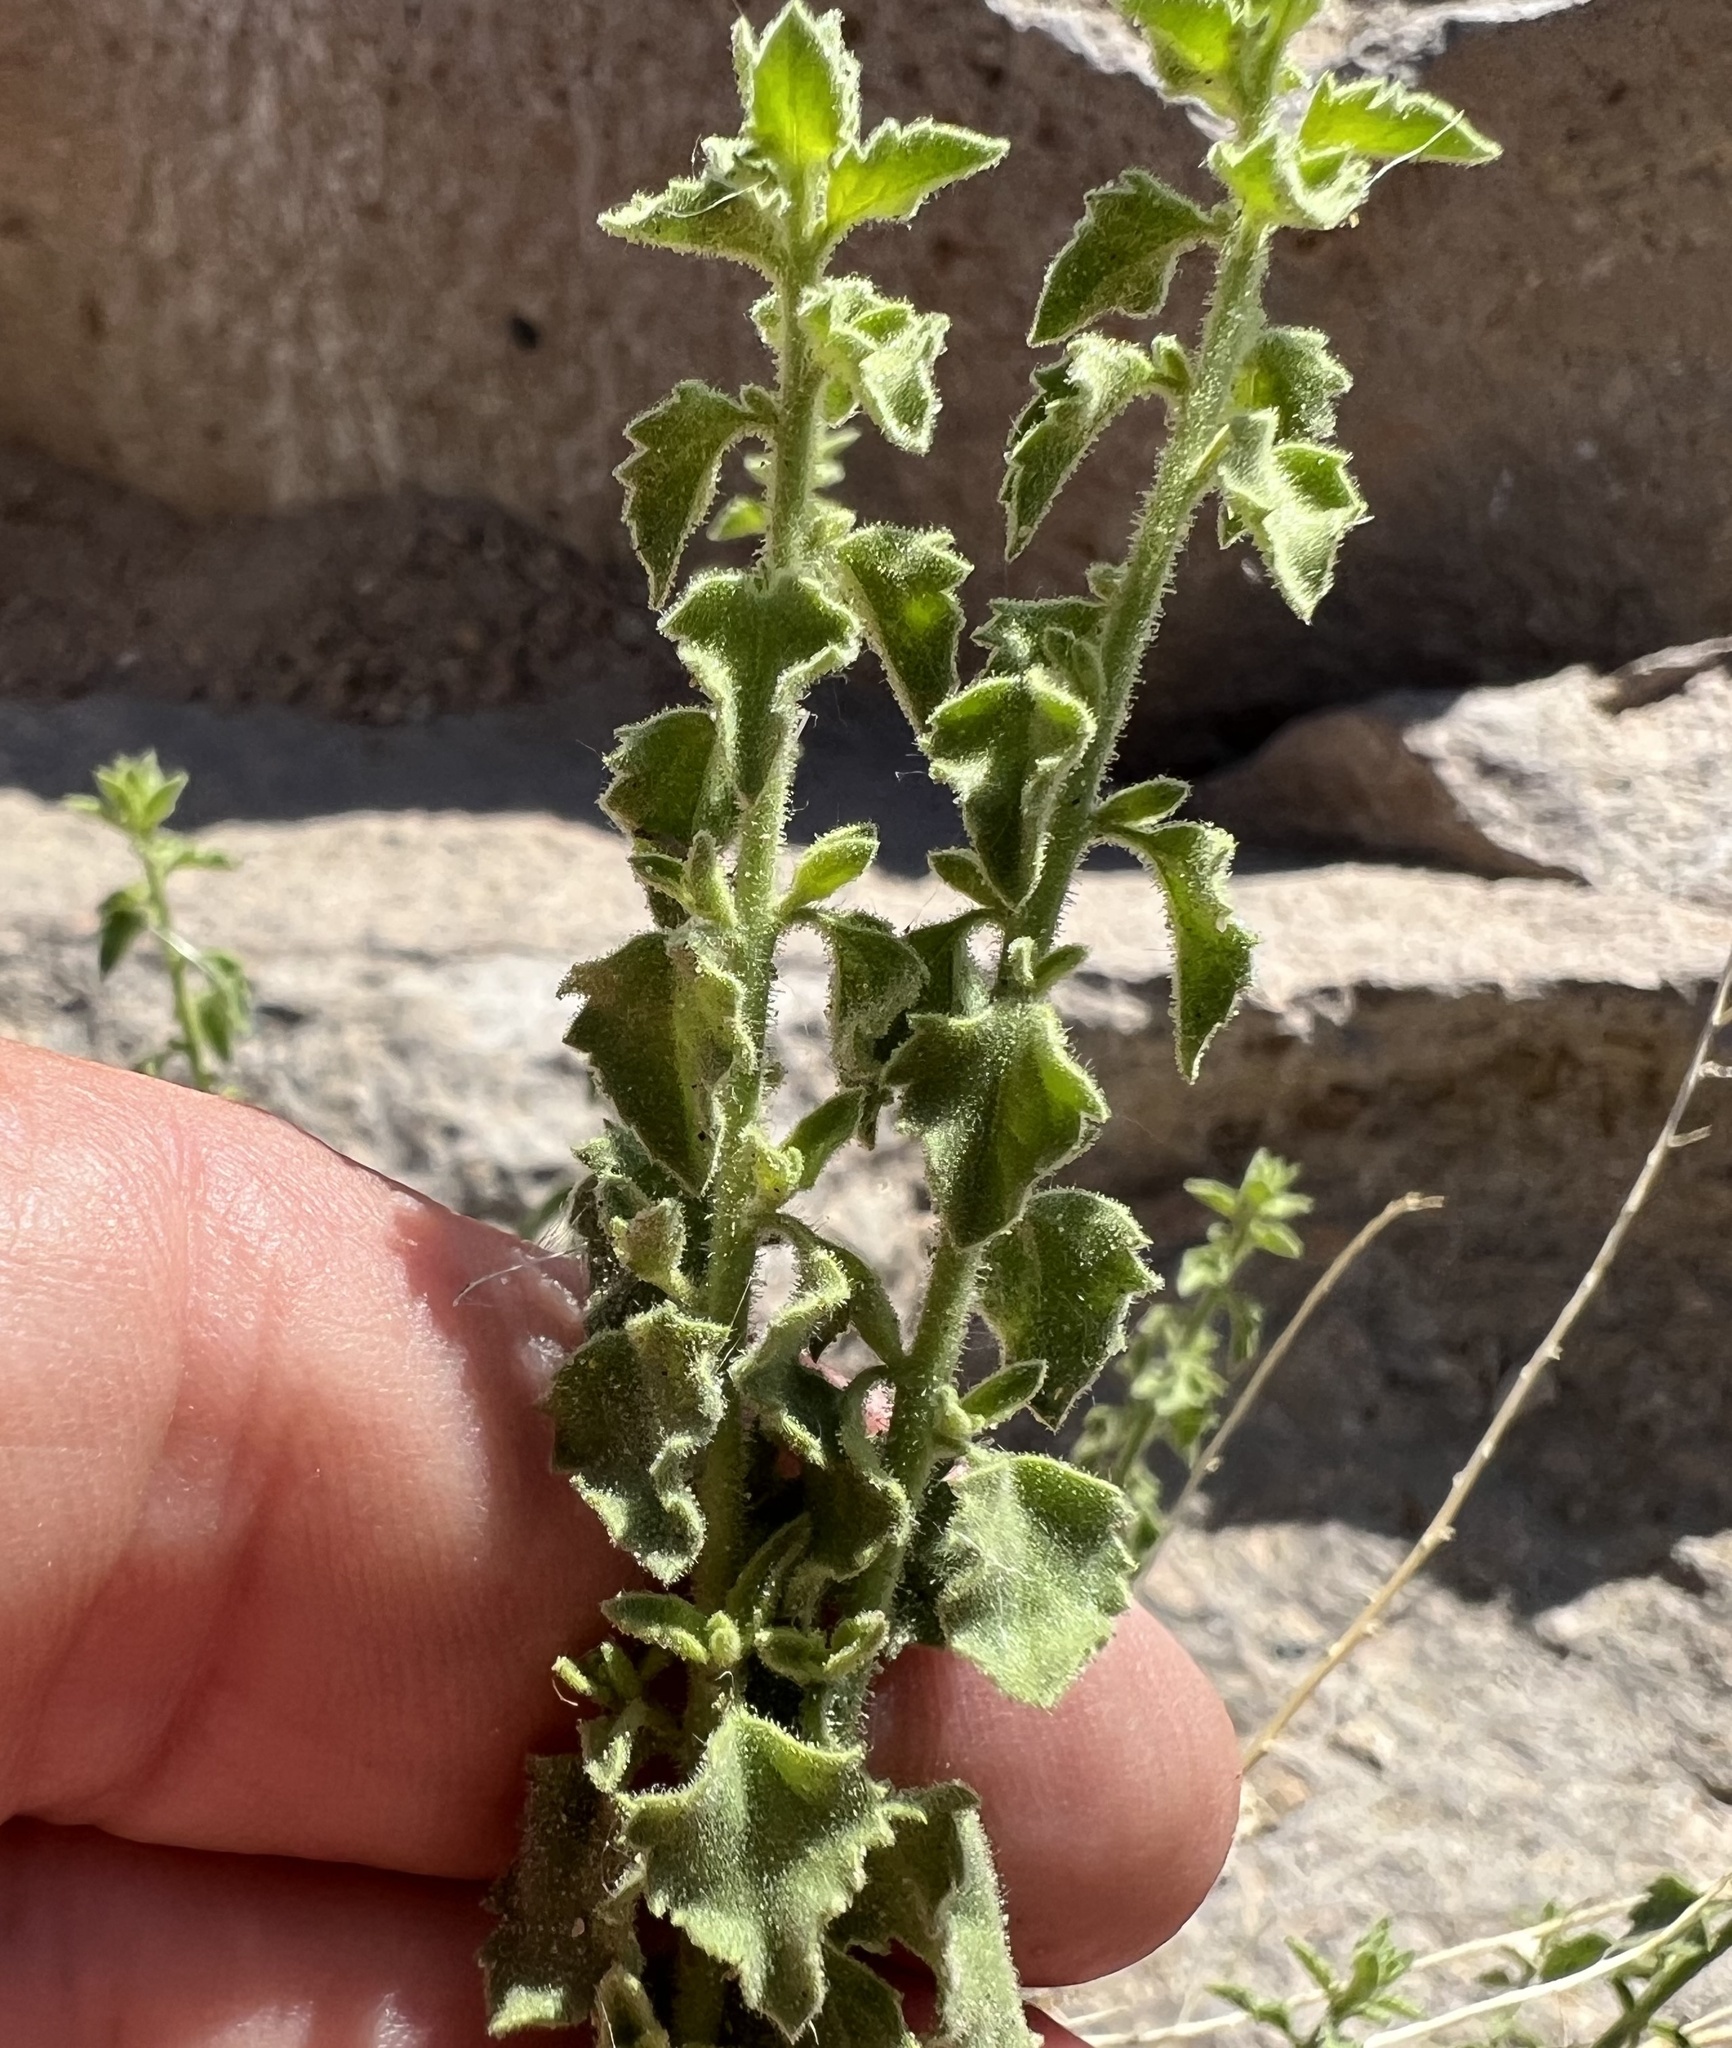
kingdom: Plantae
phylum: Tracheophyta
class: Magnoliopsida
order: Asterales
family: Asteraceae
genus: Brickellia
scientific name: Brickellia microphylla
